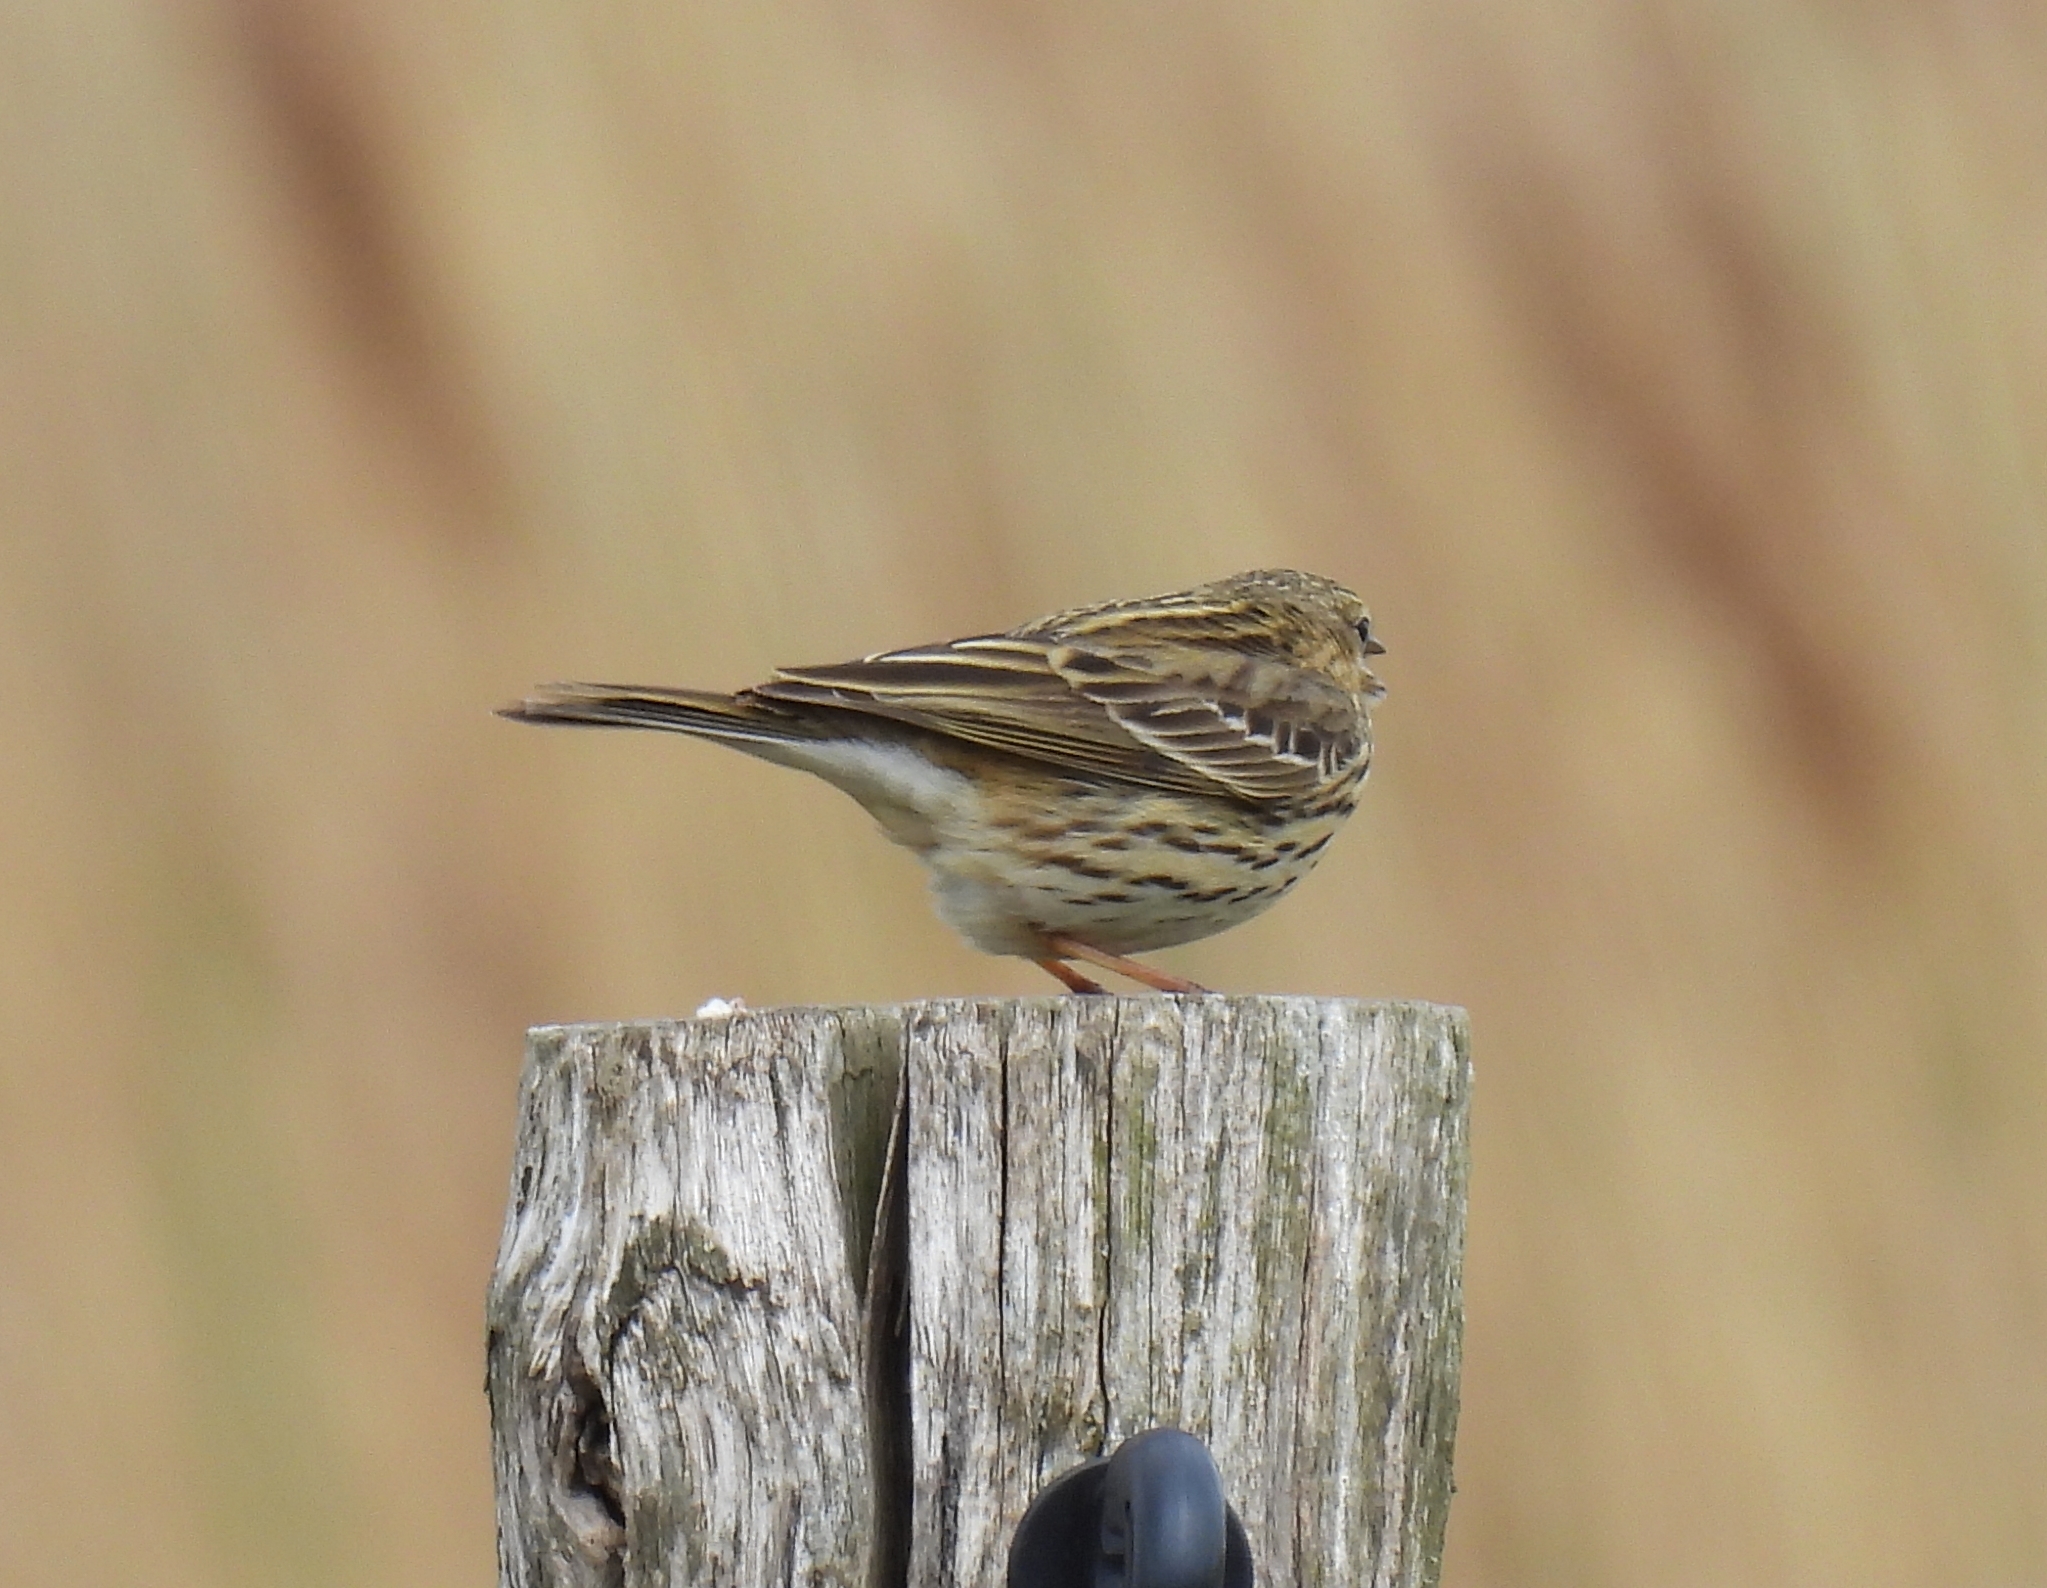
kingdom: Animalia
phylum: Chordata
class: Aves
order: Passeriformes
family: Motacillidae
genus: Anthus
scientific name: Anthus pratensis
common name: Meadow pipit
